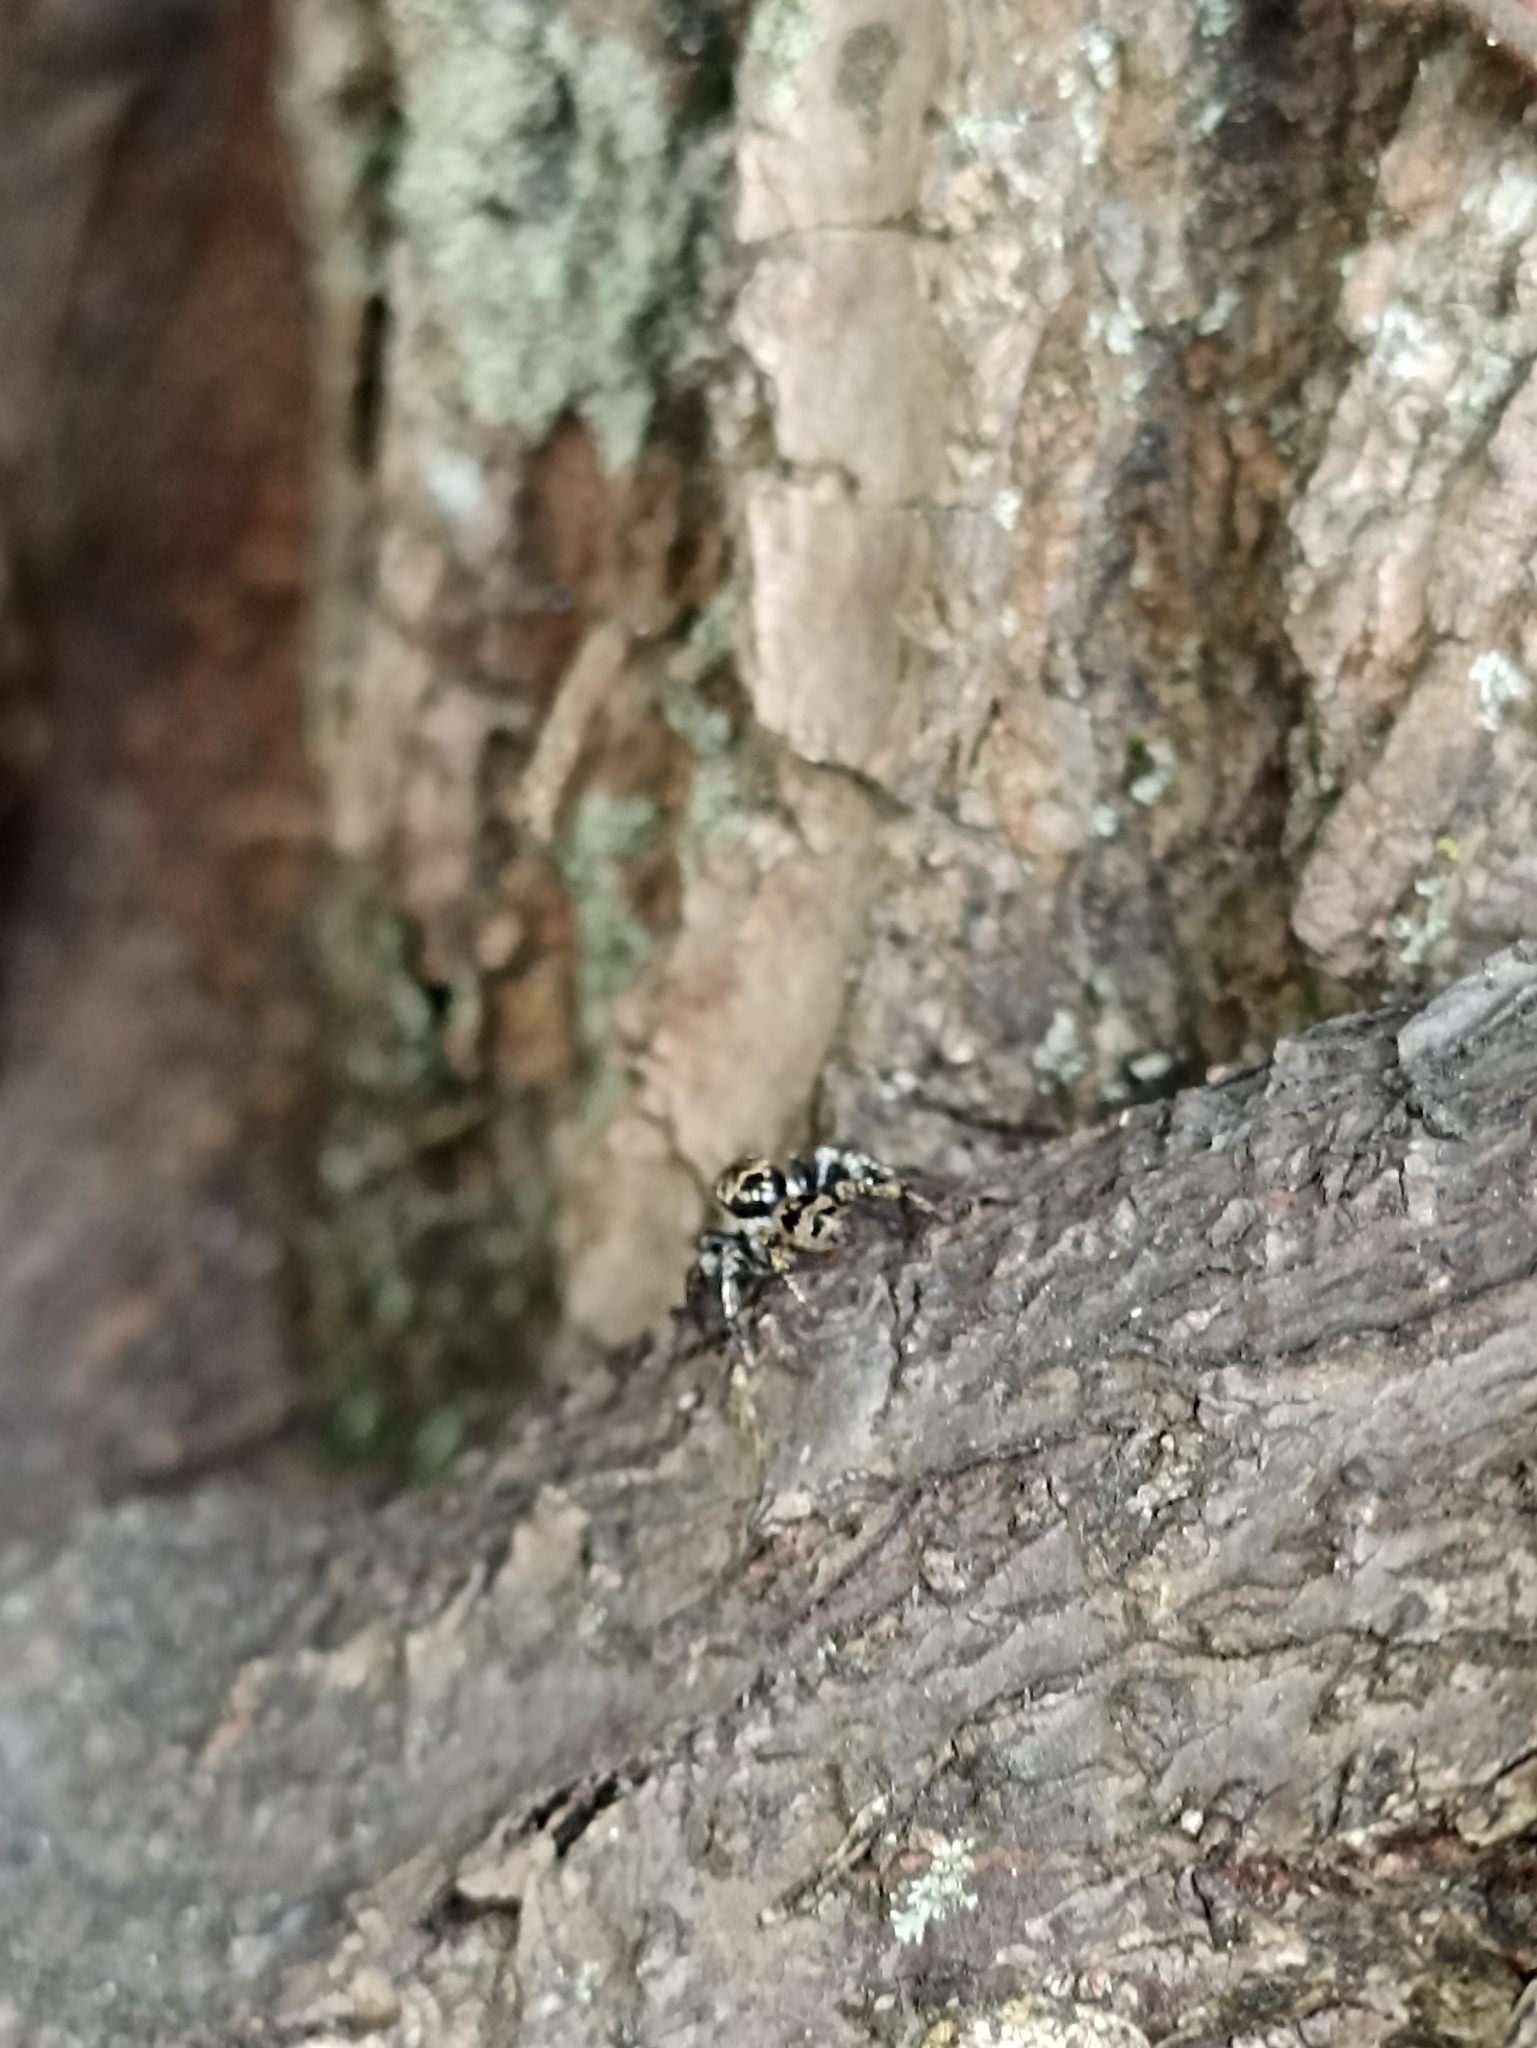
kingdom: Animalia
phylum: Arthropoda
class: Arachnida
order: Araneae
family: Salticidae
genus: Corythalia
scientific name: Corythalia conferta
